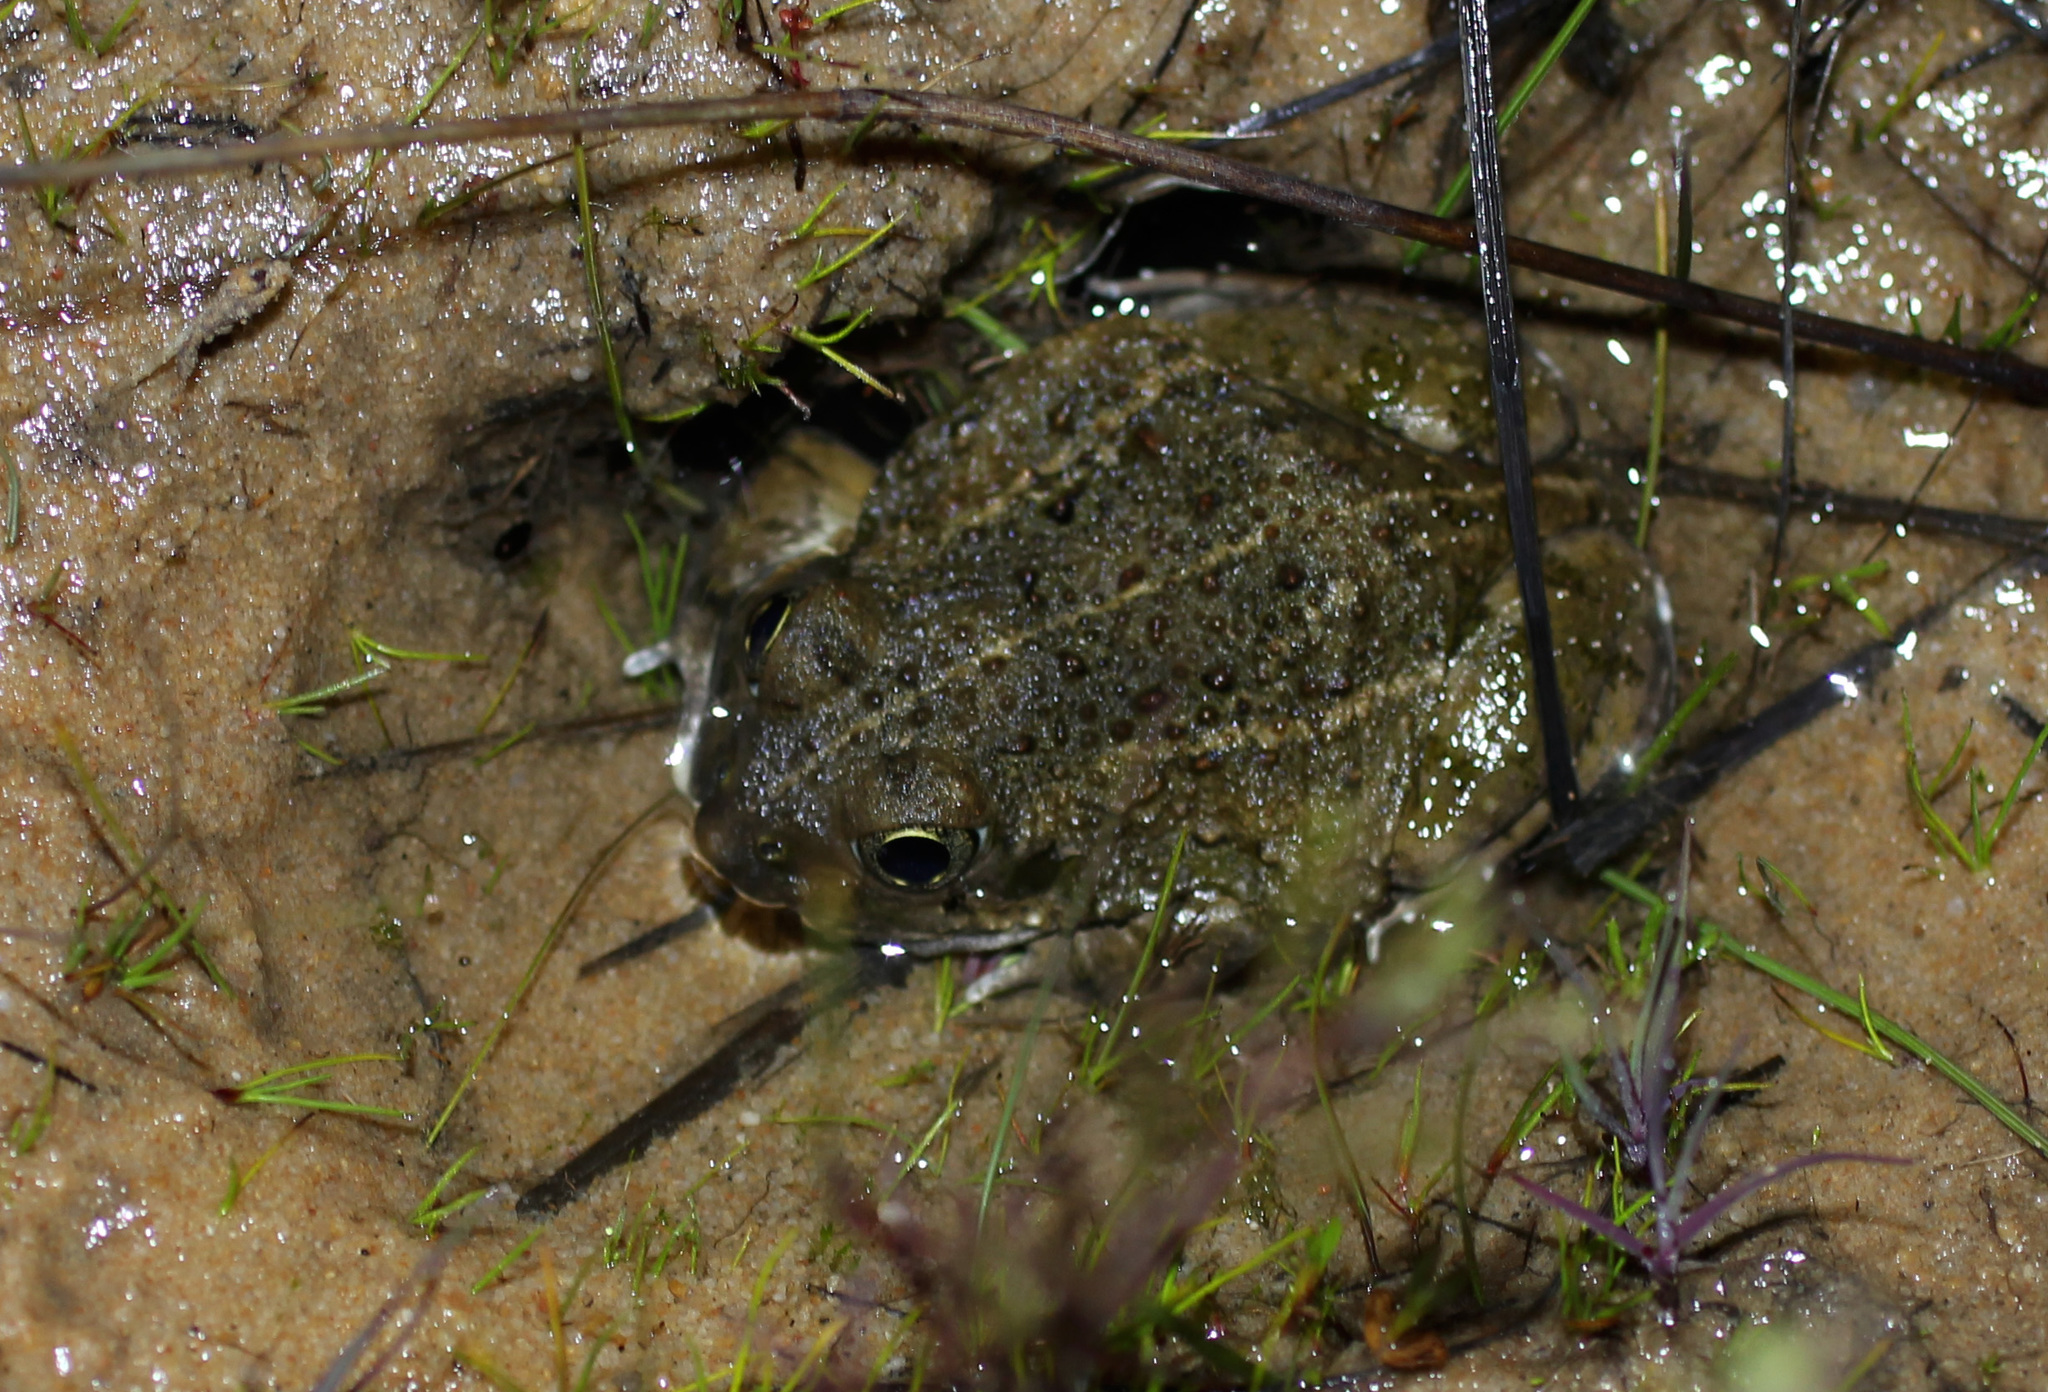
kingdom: Animalia
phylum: Chordata
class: Amphibia
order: Anura
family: Pyxicephalidae
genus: Tomopterna
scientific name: Tomopterna delalandii
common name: Delalande's burrowing bullfrog
